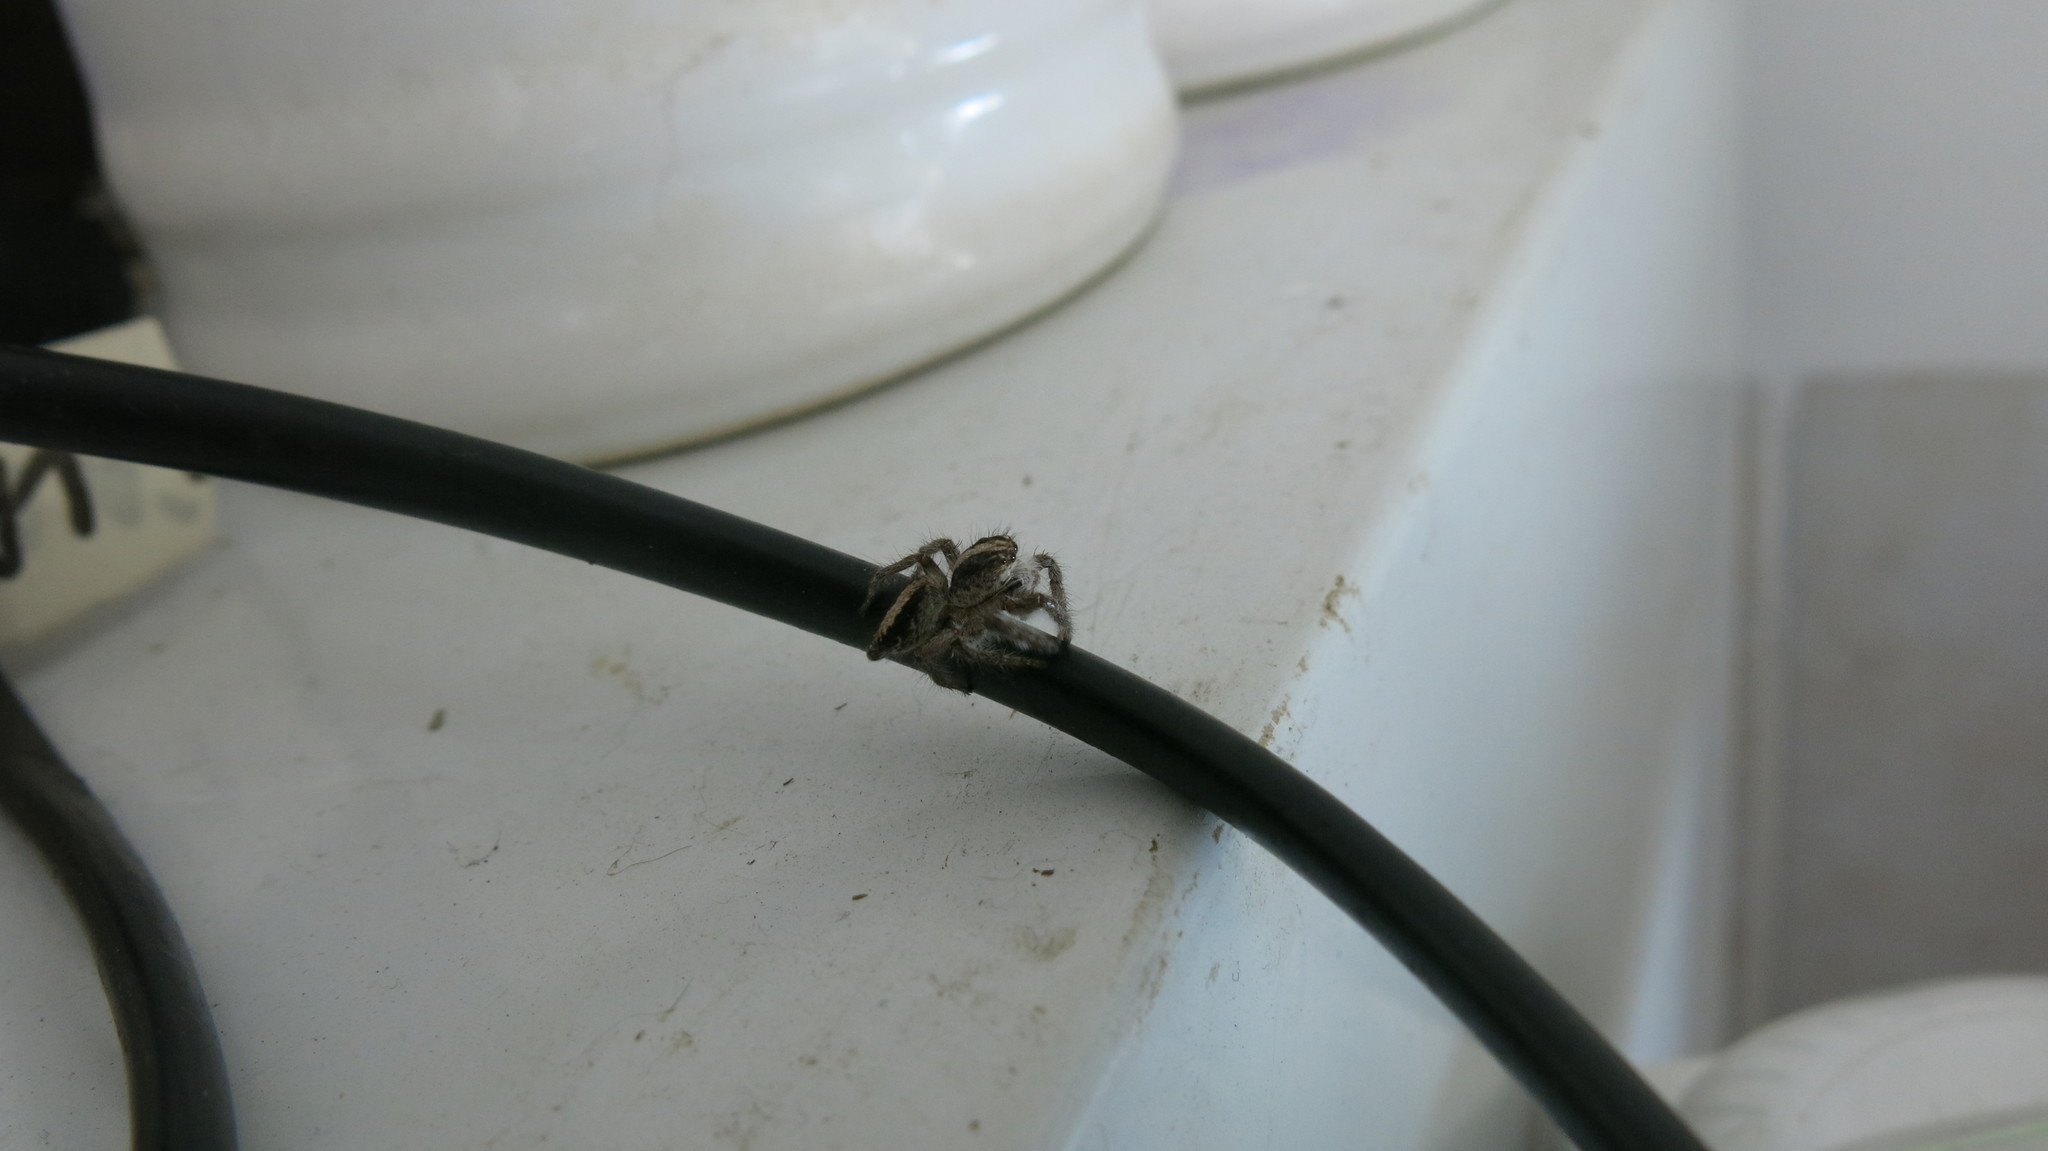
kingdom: Animalia
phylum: Arthropoda
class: Arachnida
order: Araneae
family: Salticidae
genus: Megafreya
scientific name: Megafreya sutrix
